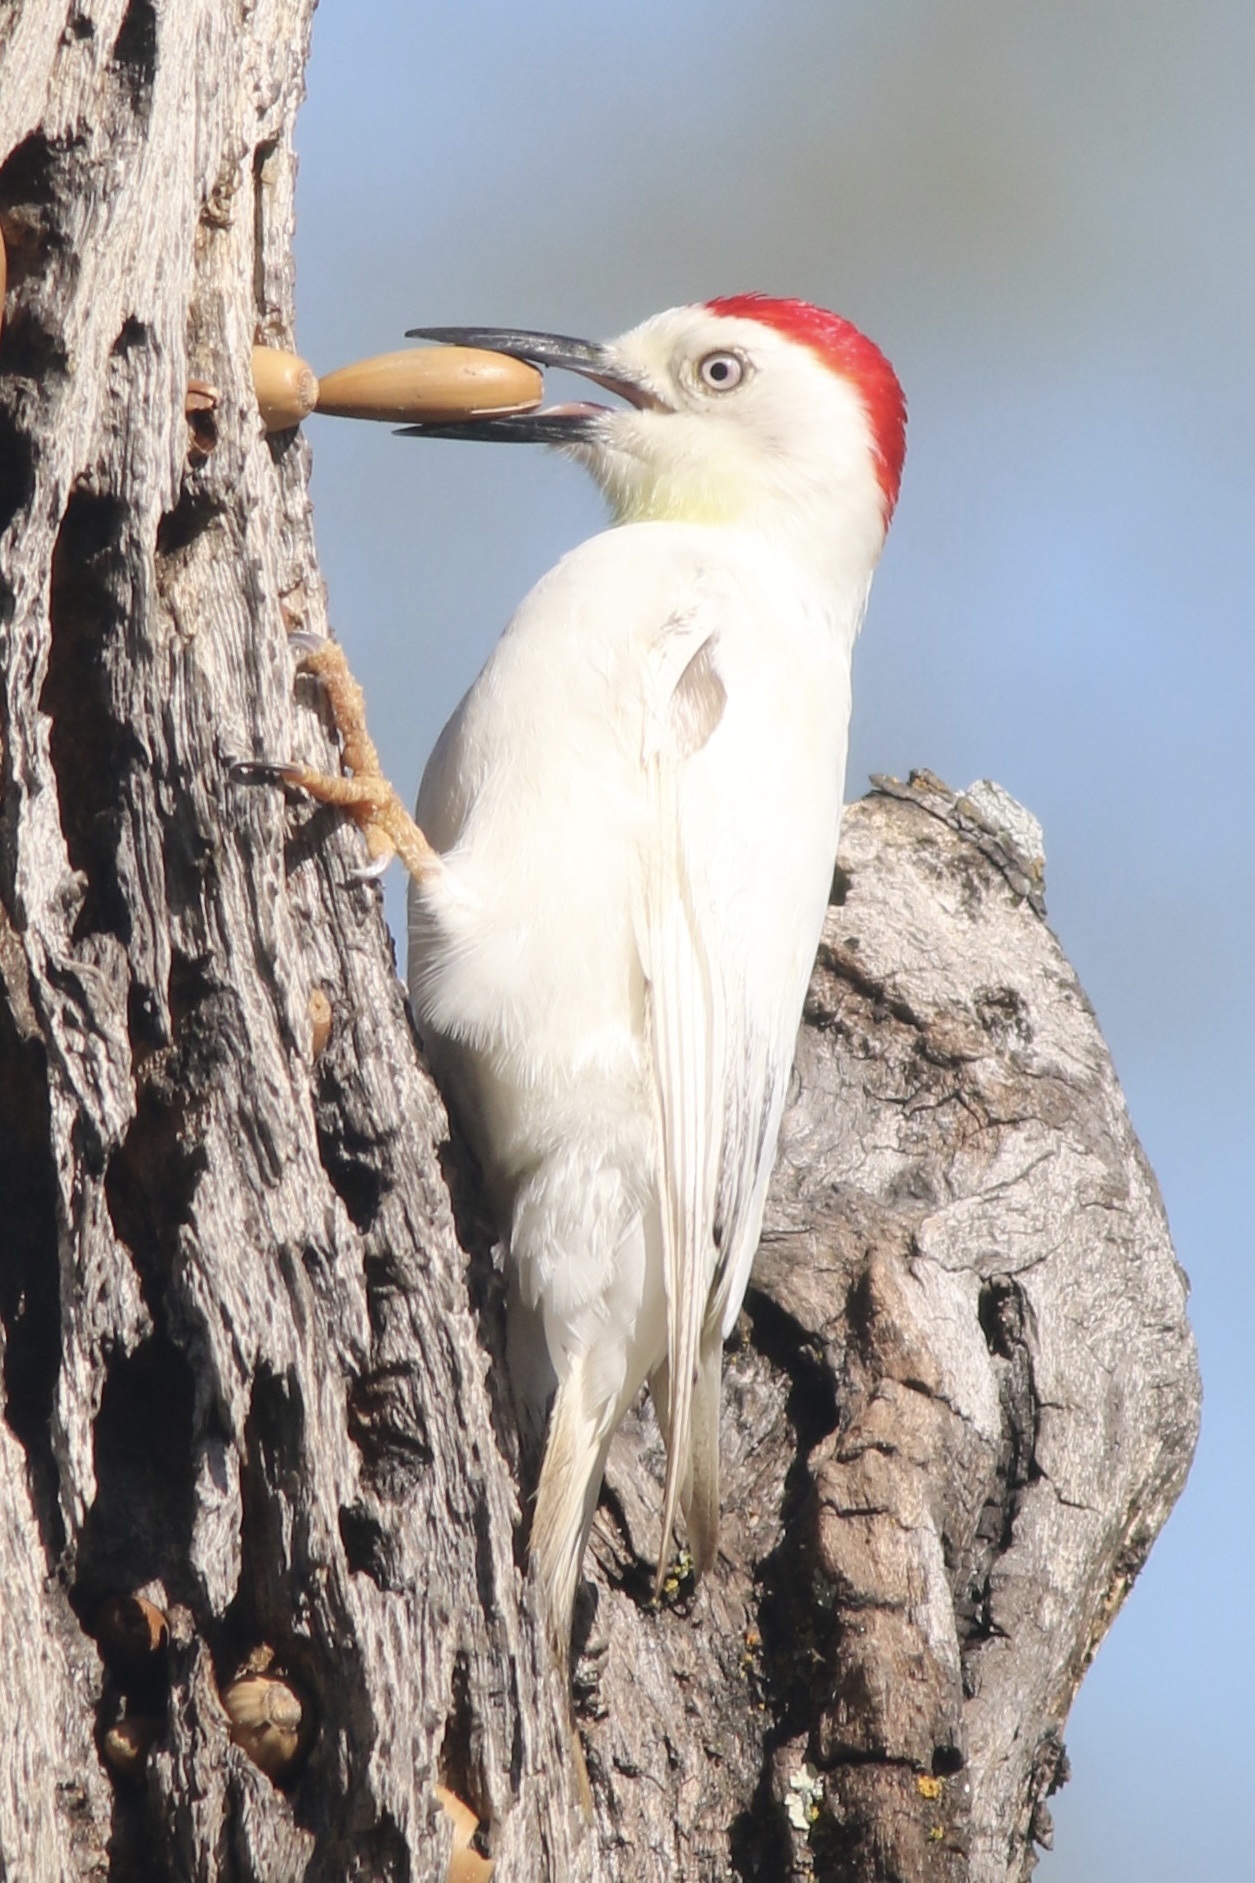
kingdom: Animalia
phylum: Chordata
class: Aves
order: Piciformes
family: Picidae
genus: Melanerpes
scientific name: Melanerpes formicivorus
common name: Acorn woodpecker
